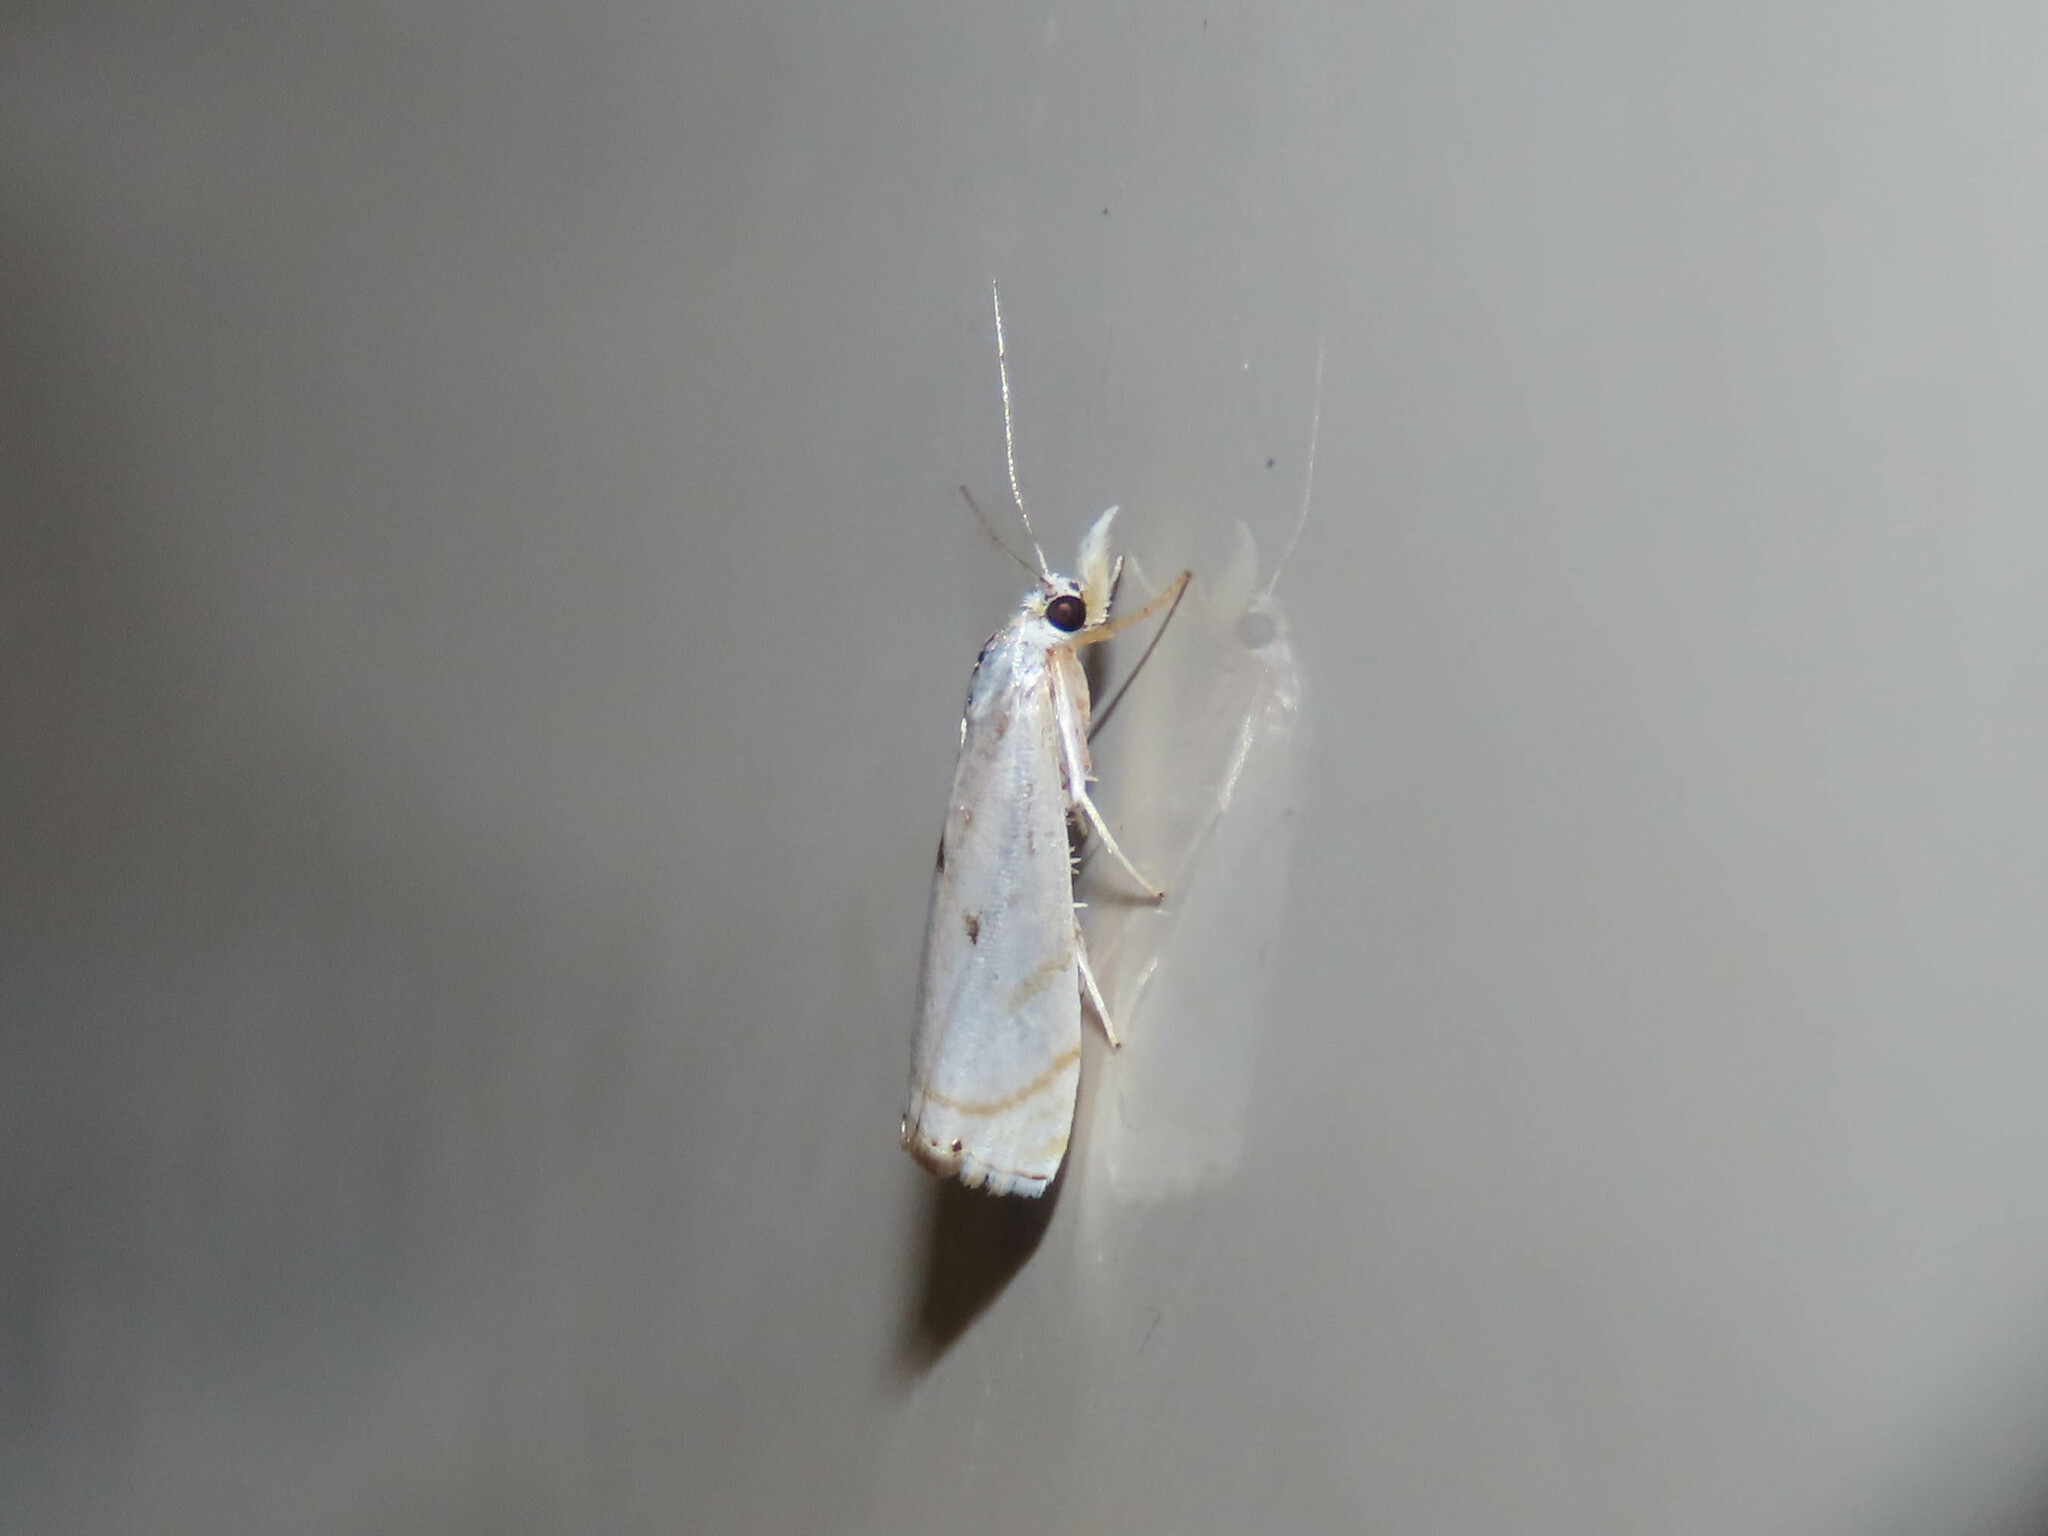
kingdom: Animalia
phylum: Arthropoda
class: Insecta
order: Lepidoptera
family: Crambidae
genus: Microcrambus
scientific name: Microcrambus biguttellus
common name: Gold-stripe grass-veneer moth
